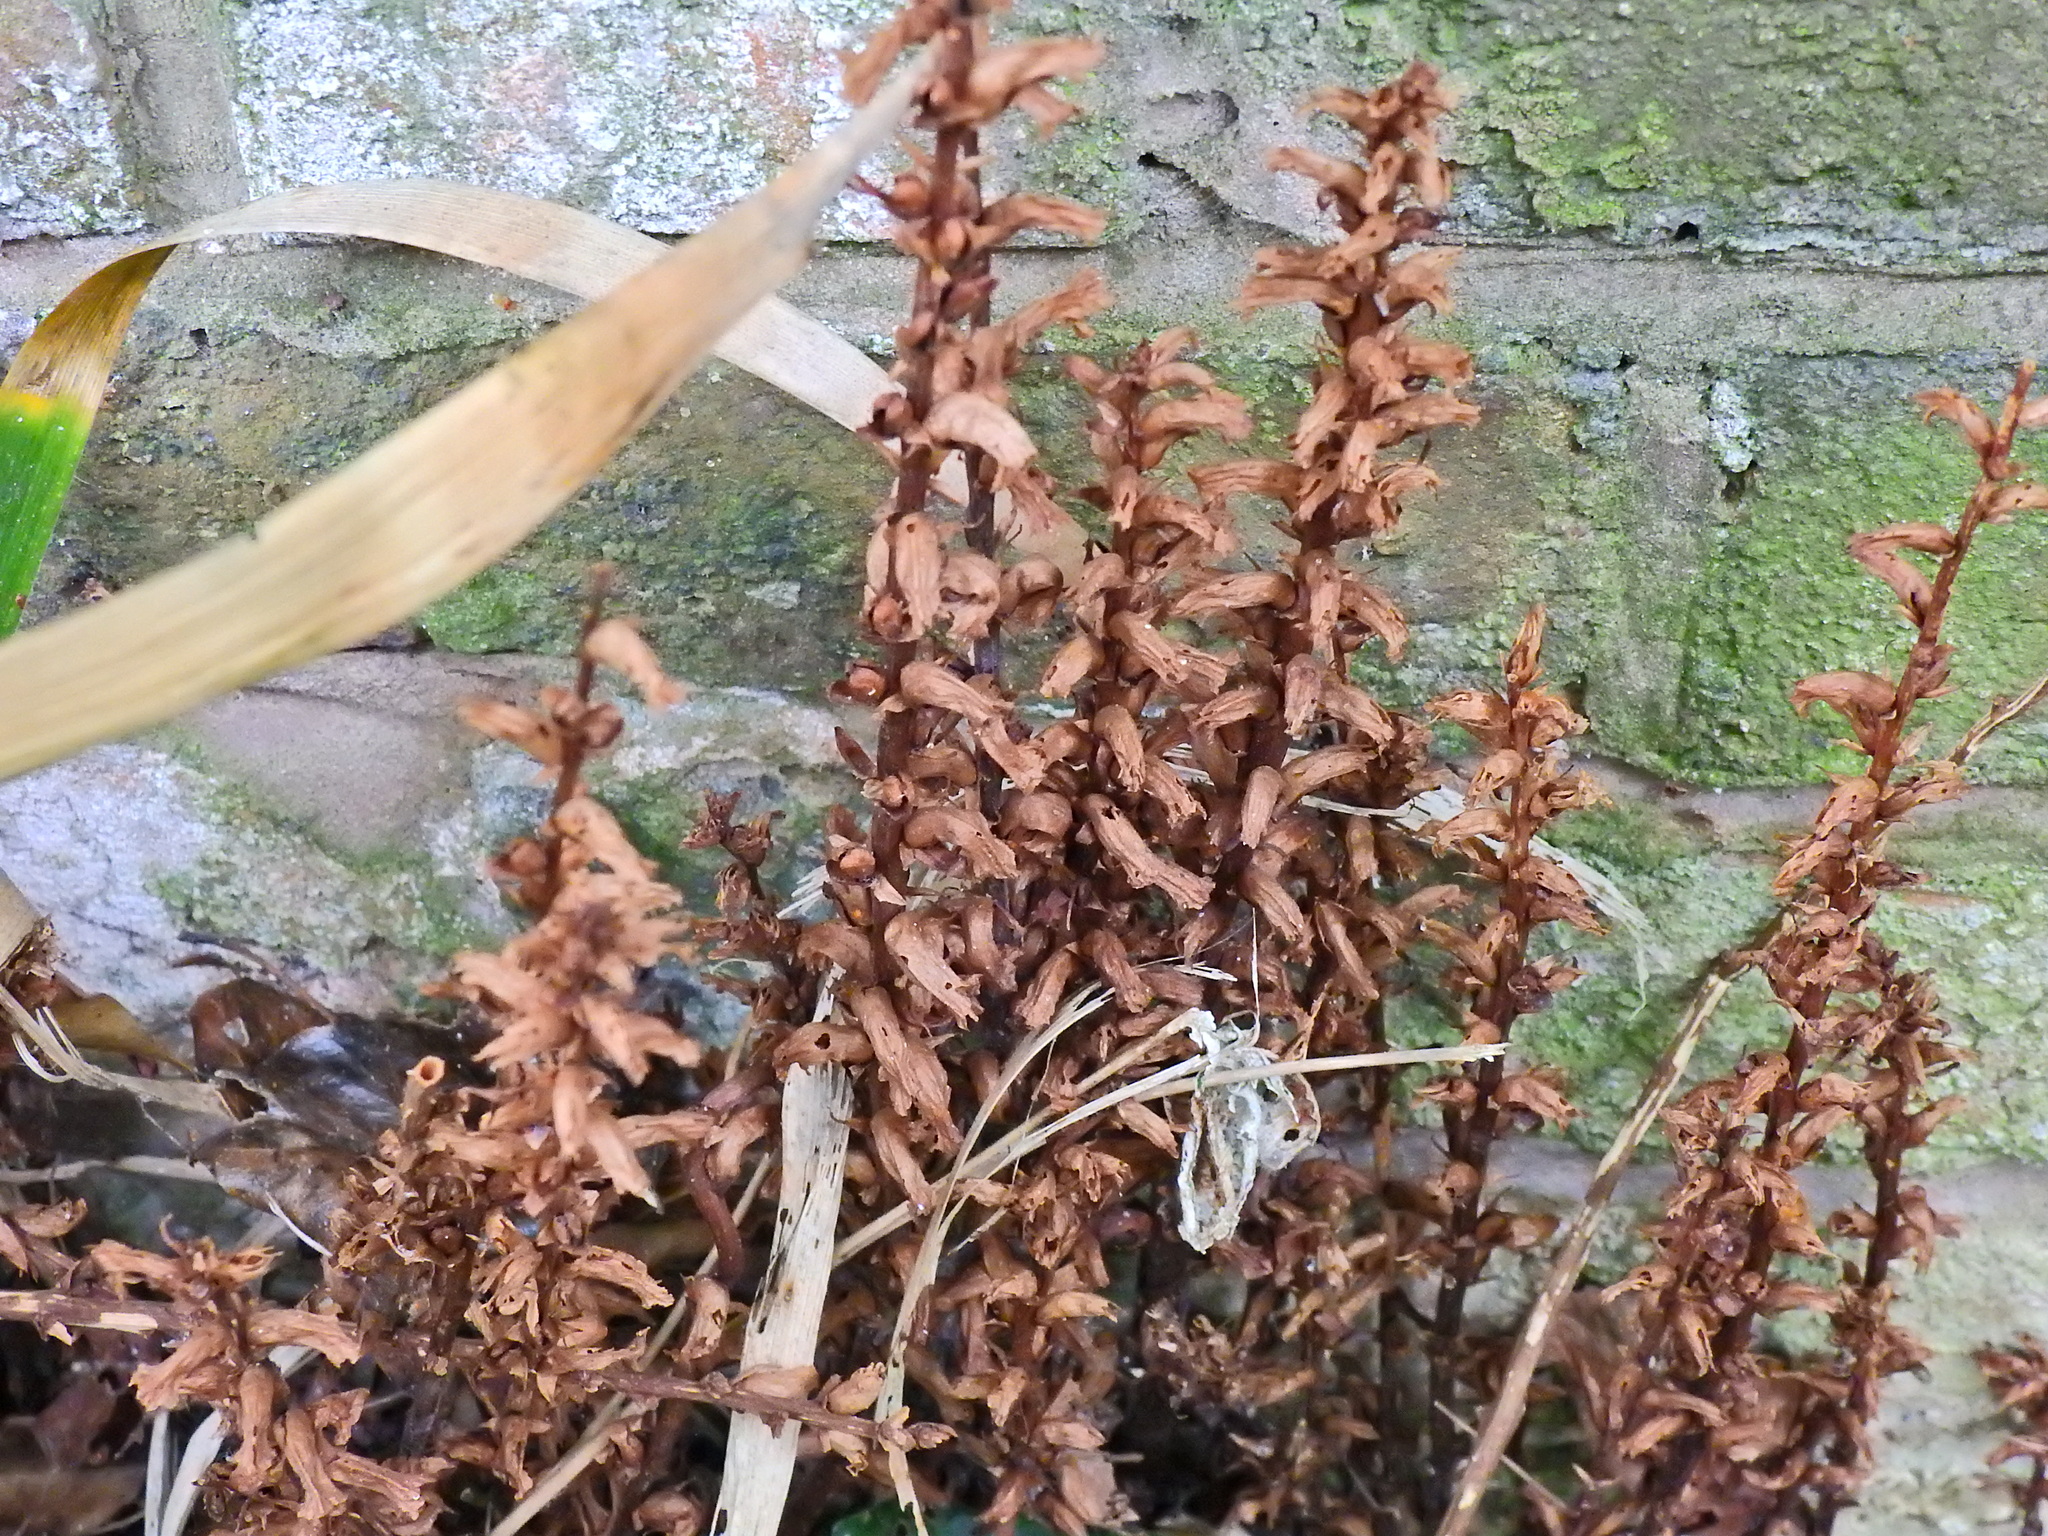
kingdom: Plantae
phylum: Tracheophyta
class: Magnoliopsida
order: Lamiales
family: Orobanchaceae
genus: Orobanche
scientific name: Orobanche hederae
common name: Ivy broomrape
